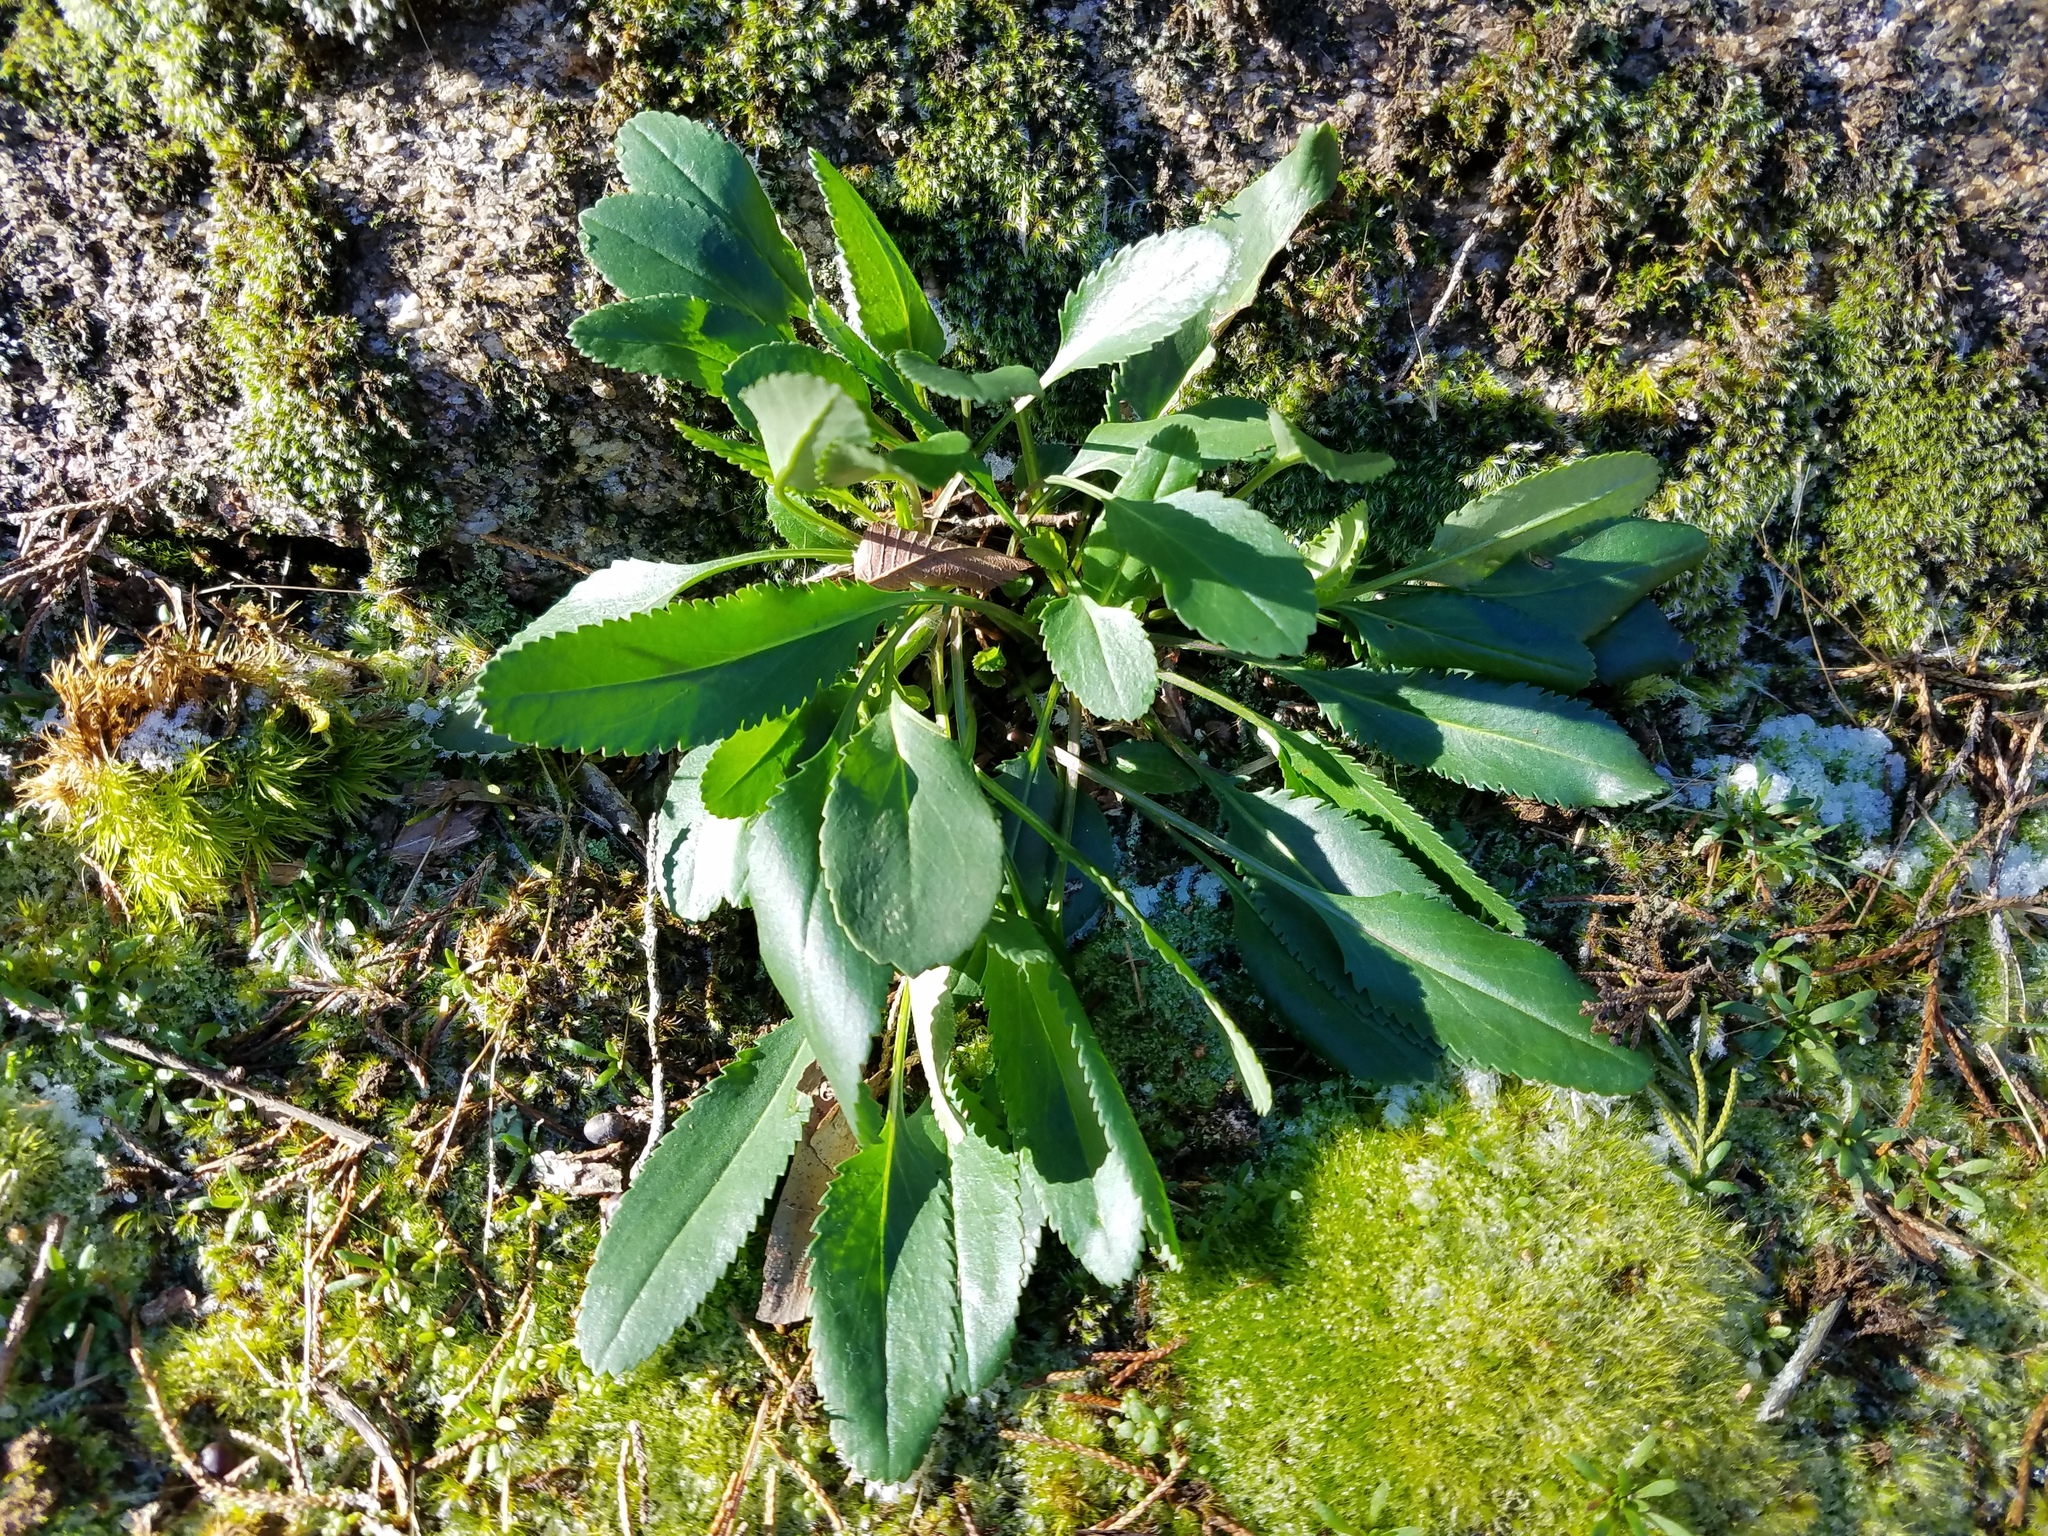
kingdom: Plantae
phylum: Tracheophyta
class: Magnoliopsida
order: Asterales
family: Asteraceae
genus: Packera
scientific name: Packera dubia
